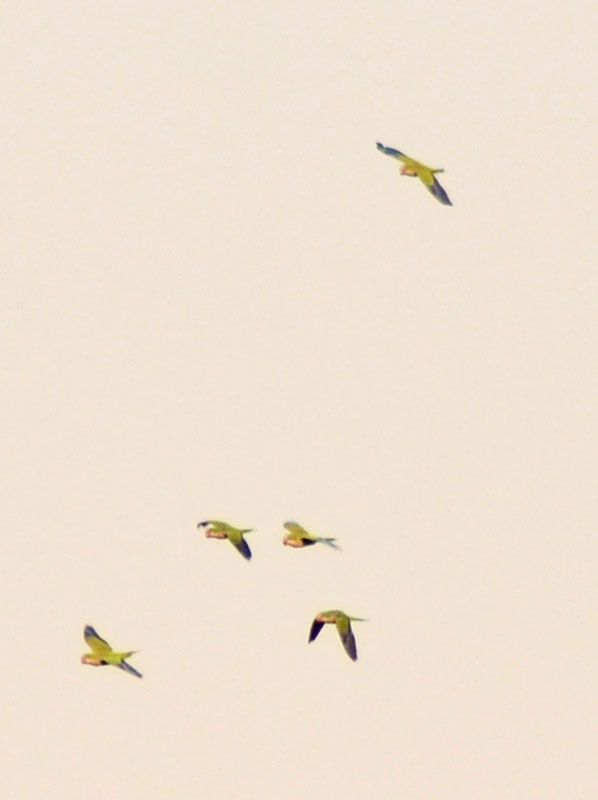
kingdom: Animalia
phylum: Chordata
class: Aves
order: Psittaciformes
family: Psittacidae
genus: Myiopsitta
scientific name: Myiopsitta monachus
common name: Monk parakeet
